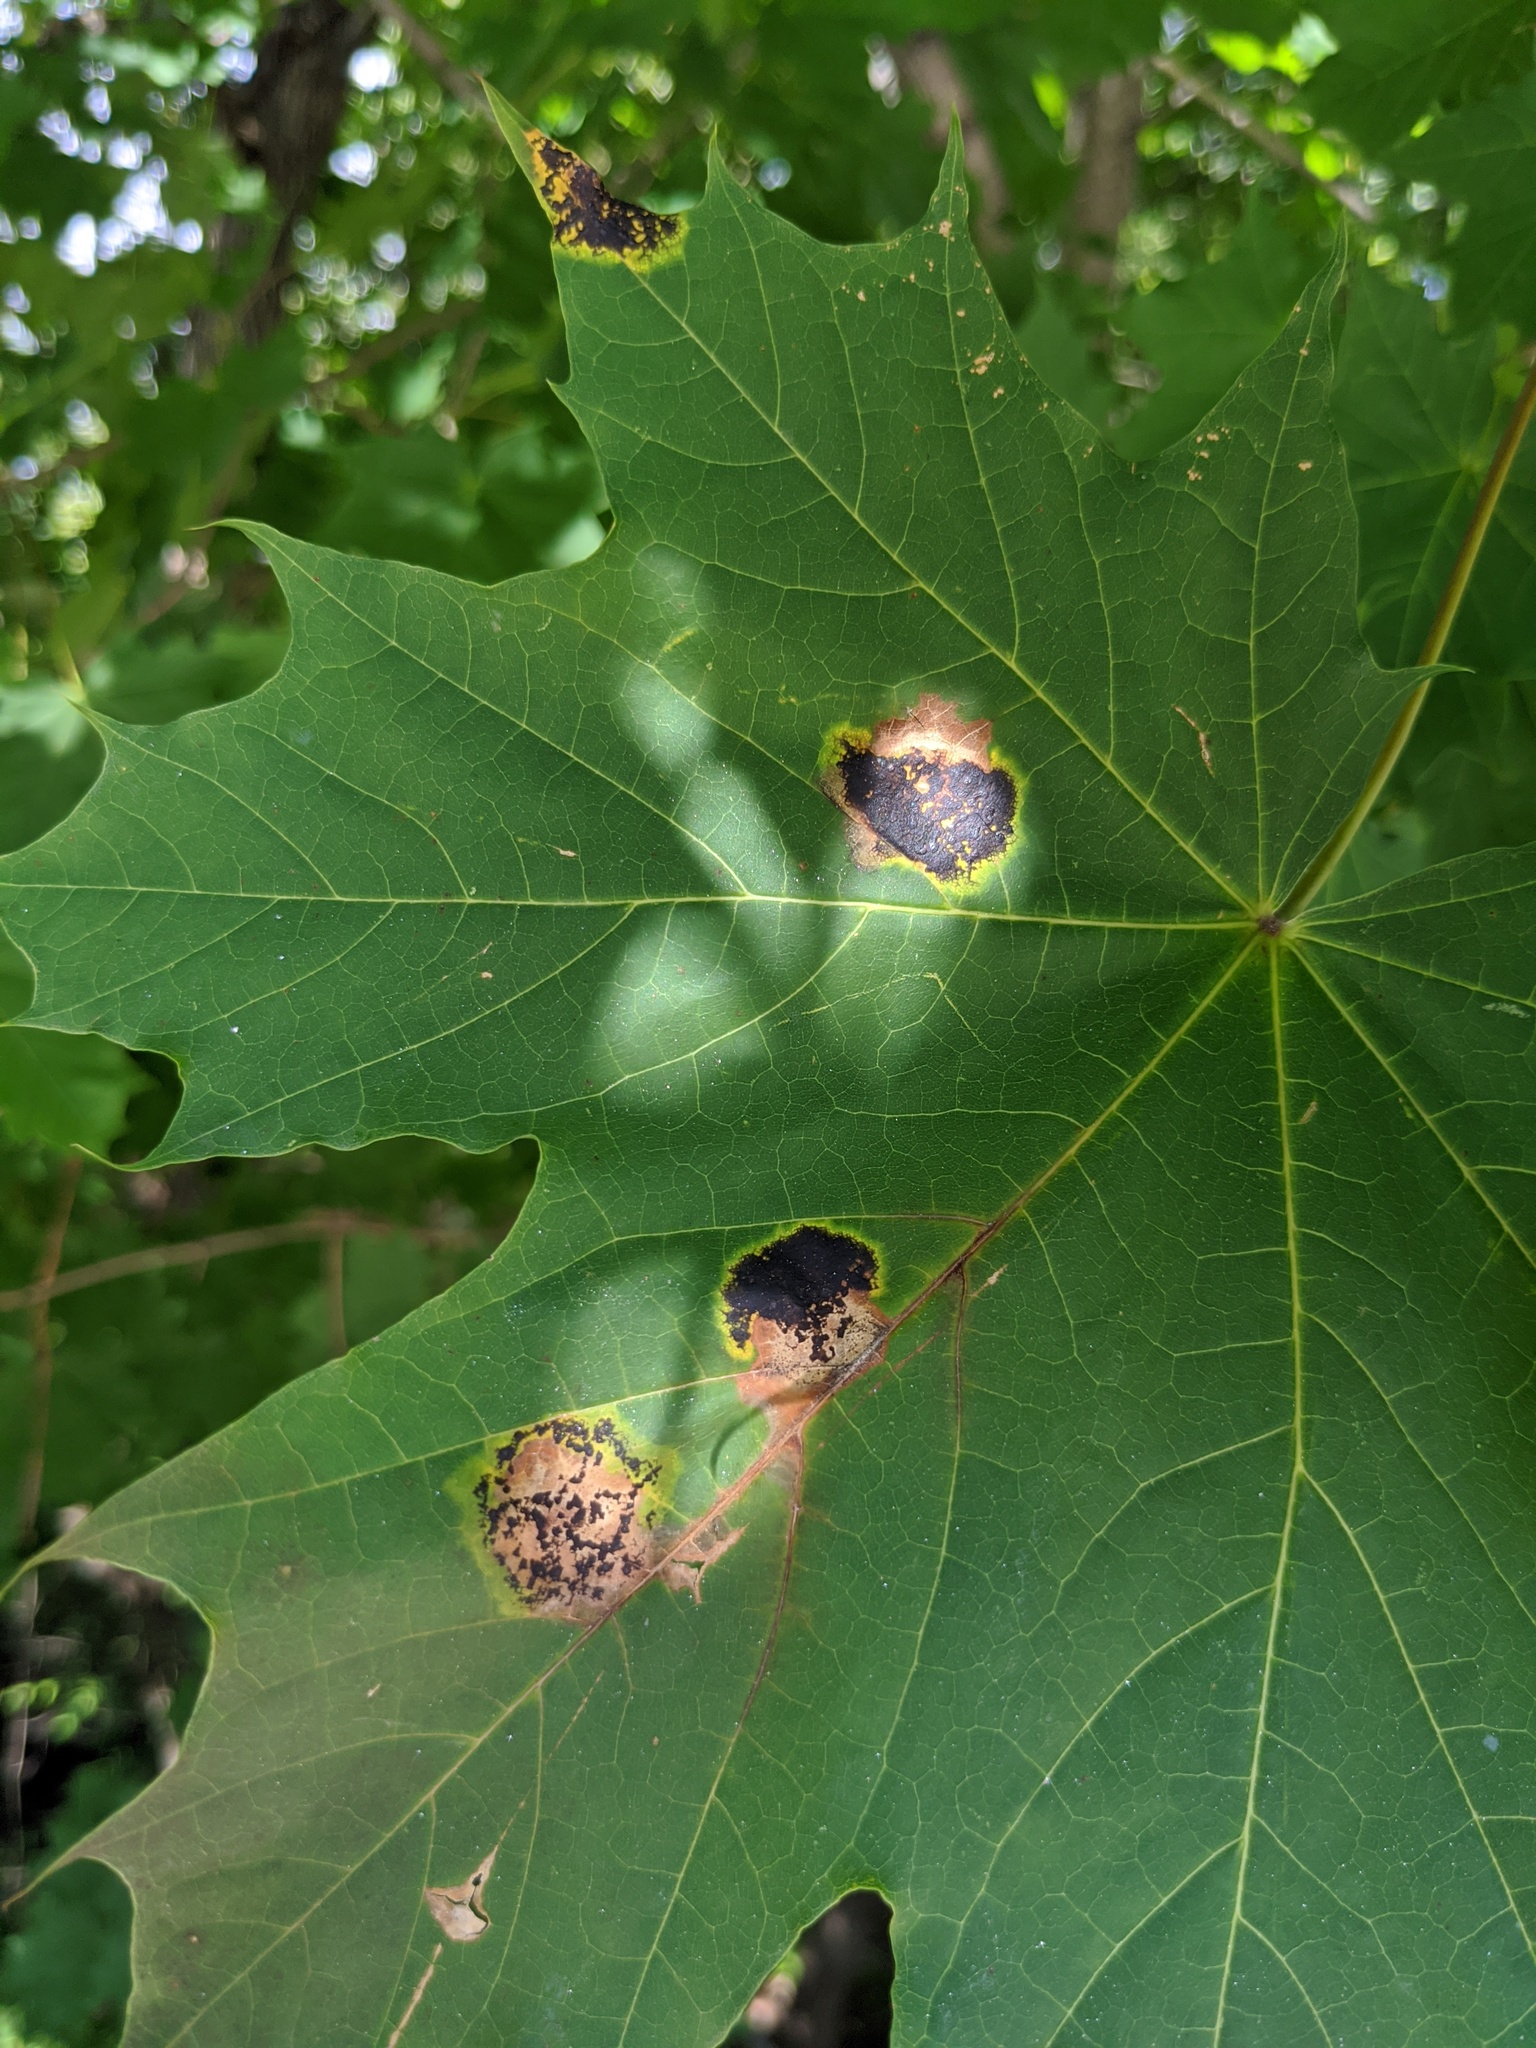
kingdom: Fungi
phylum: Ascomycota
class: Leotiomycetes
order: Rhytismatales
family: Rhytismataceae
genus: Rhytisma
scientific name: Rhytisma acerinum
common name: European tar spot
